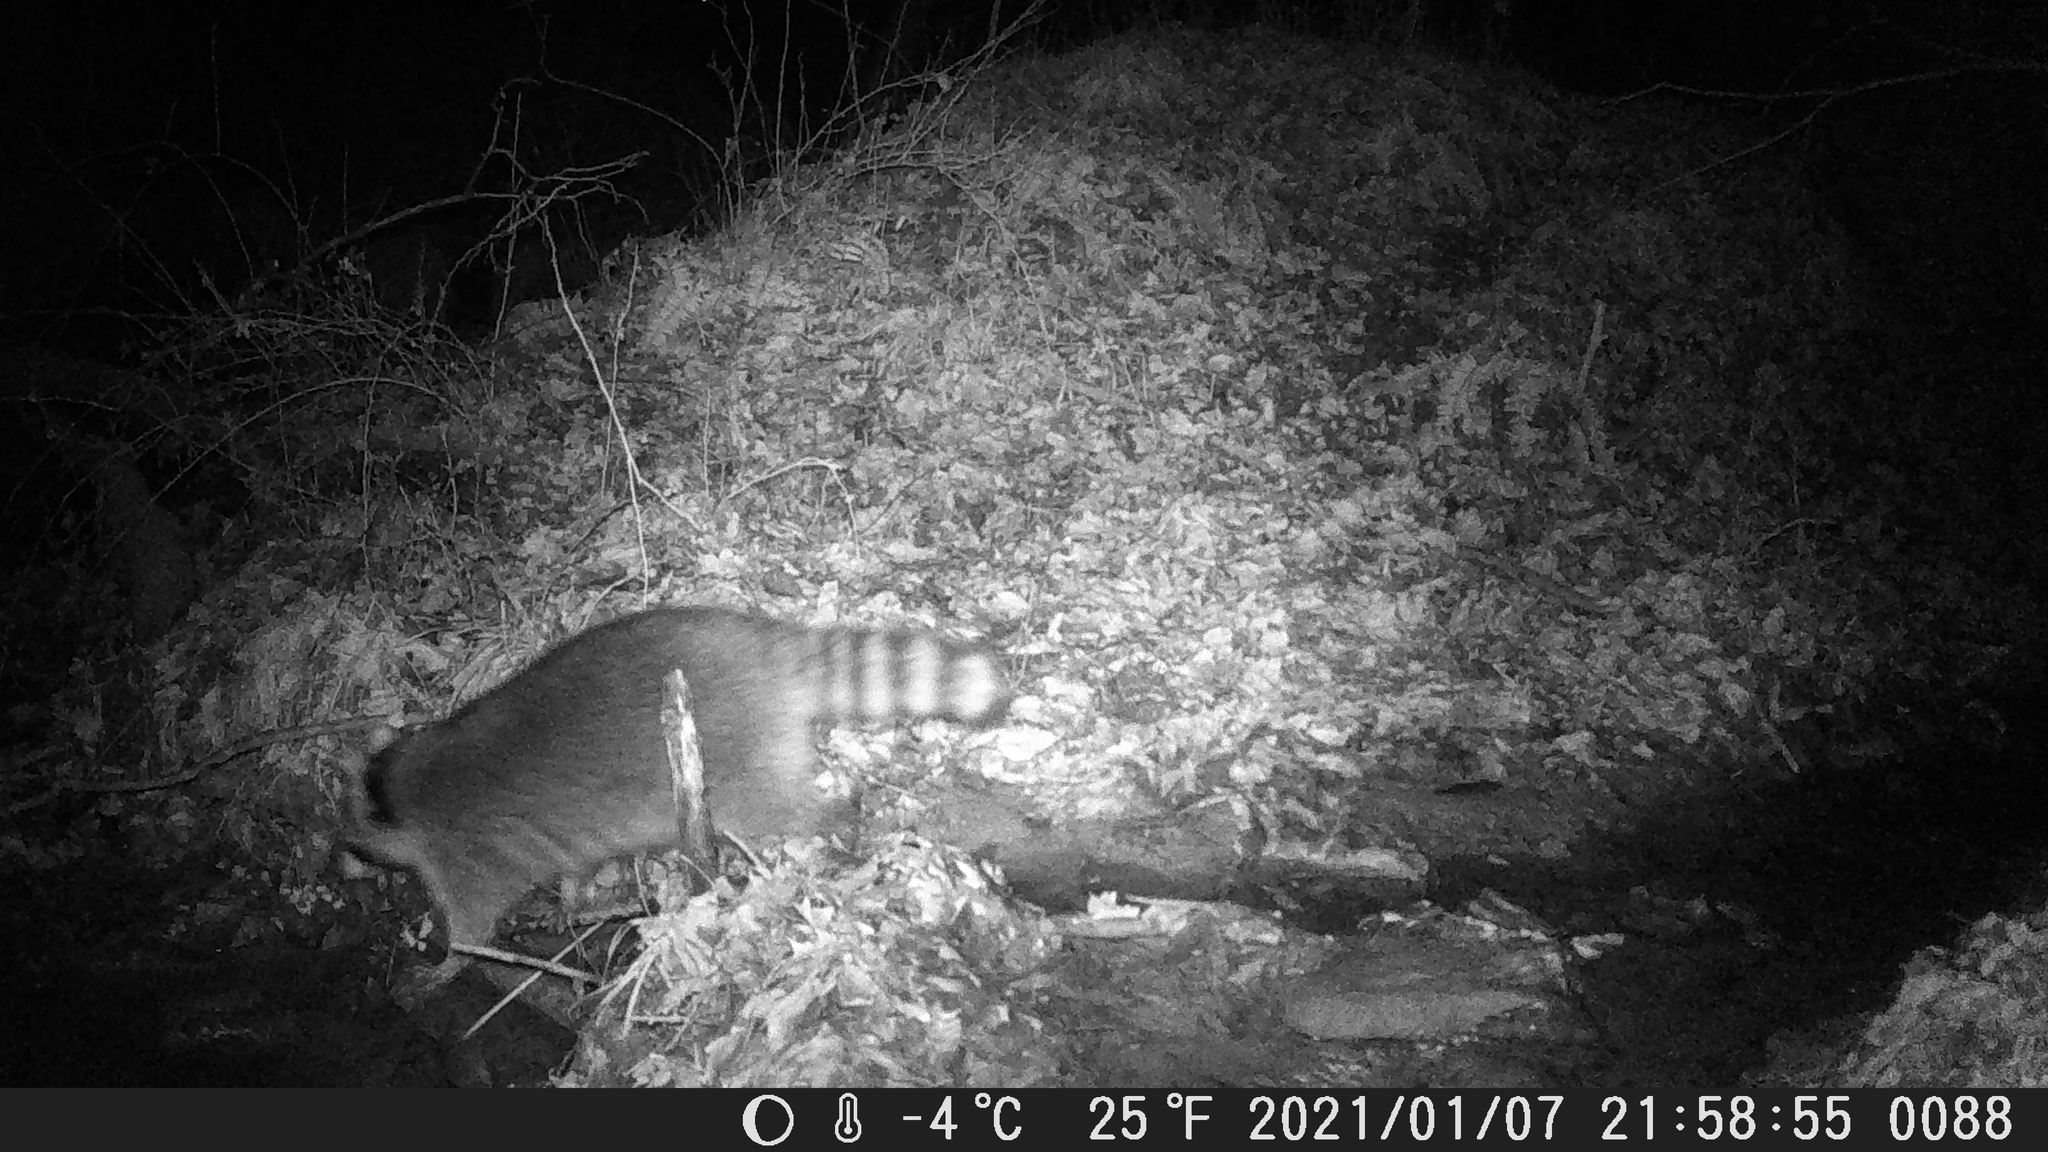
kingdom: Animalia
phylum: Chordata
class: Mammalia
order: Carnivora
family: Procyonidae
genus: Procyon
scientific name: Procyon lotor
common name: Raccoon
